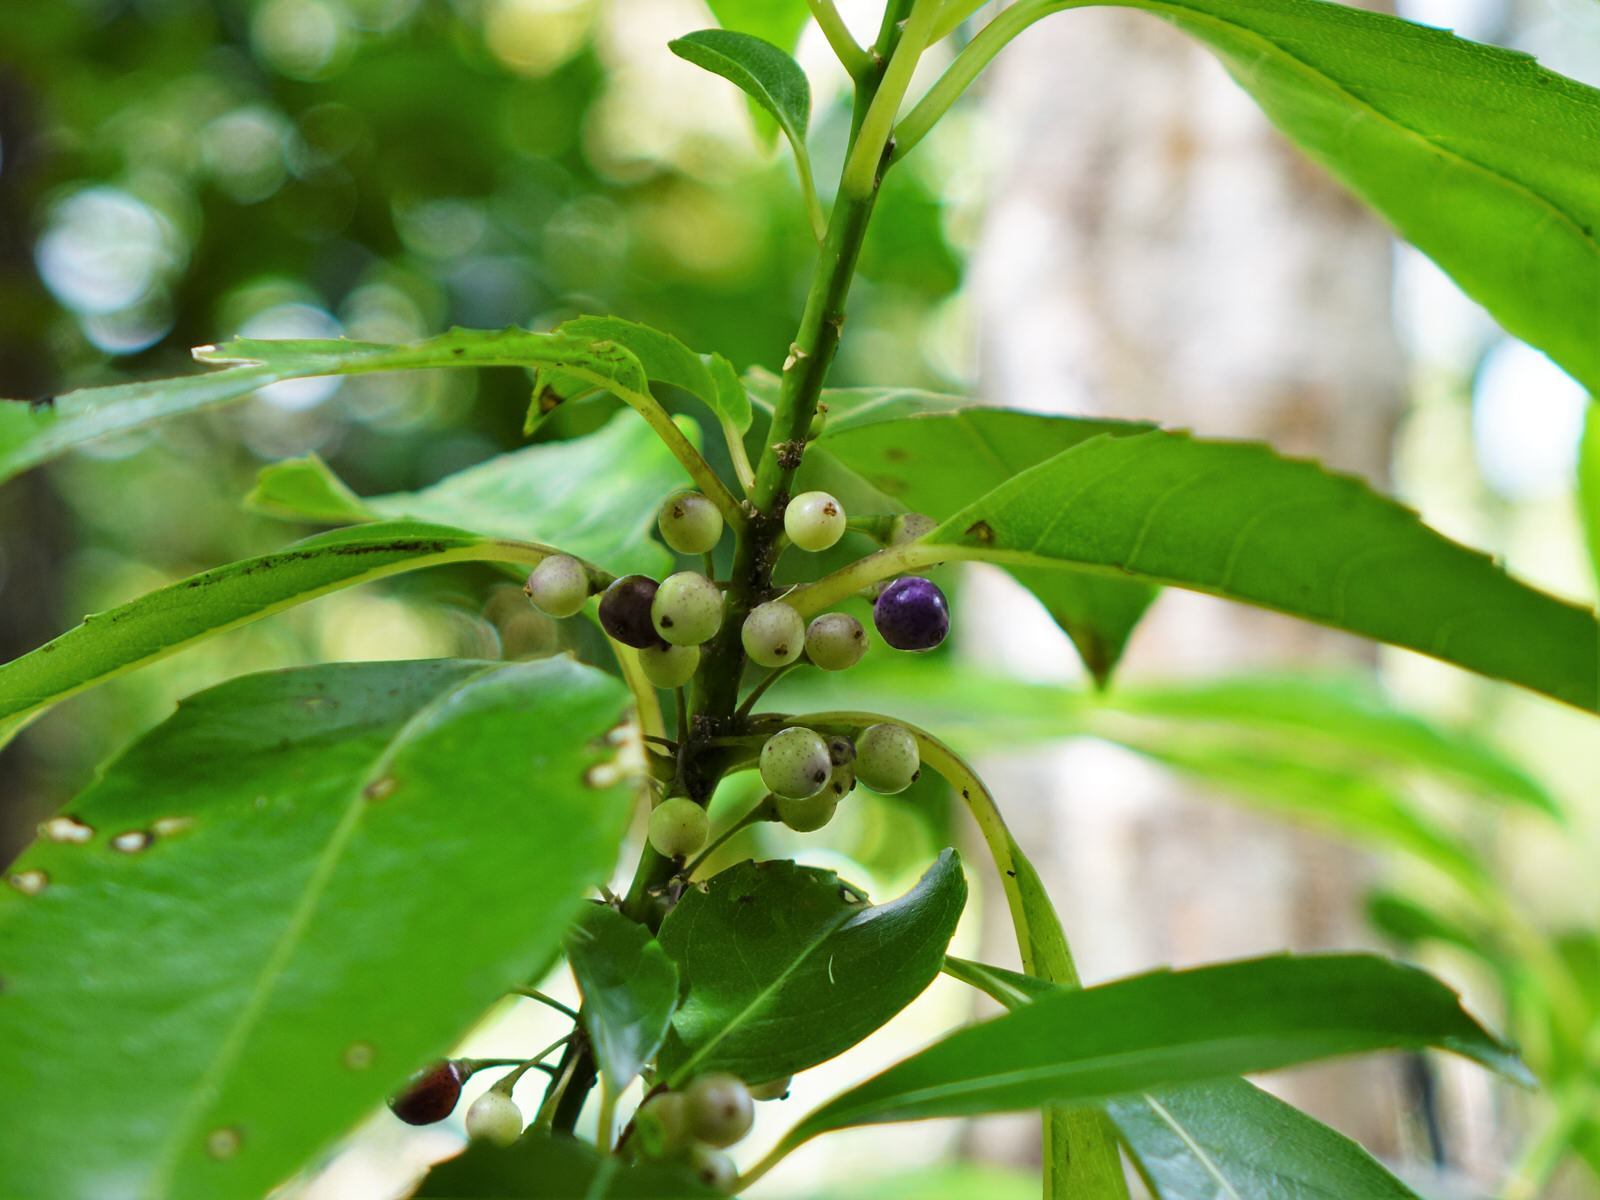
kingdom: Plantae
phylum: Tracheophyta
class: Magnoliopsida
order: Malpighiales
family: Violaceae
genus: Melicytus
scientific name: Melicytus macrophyllus
